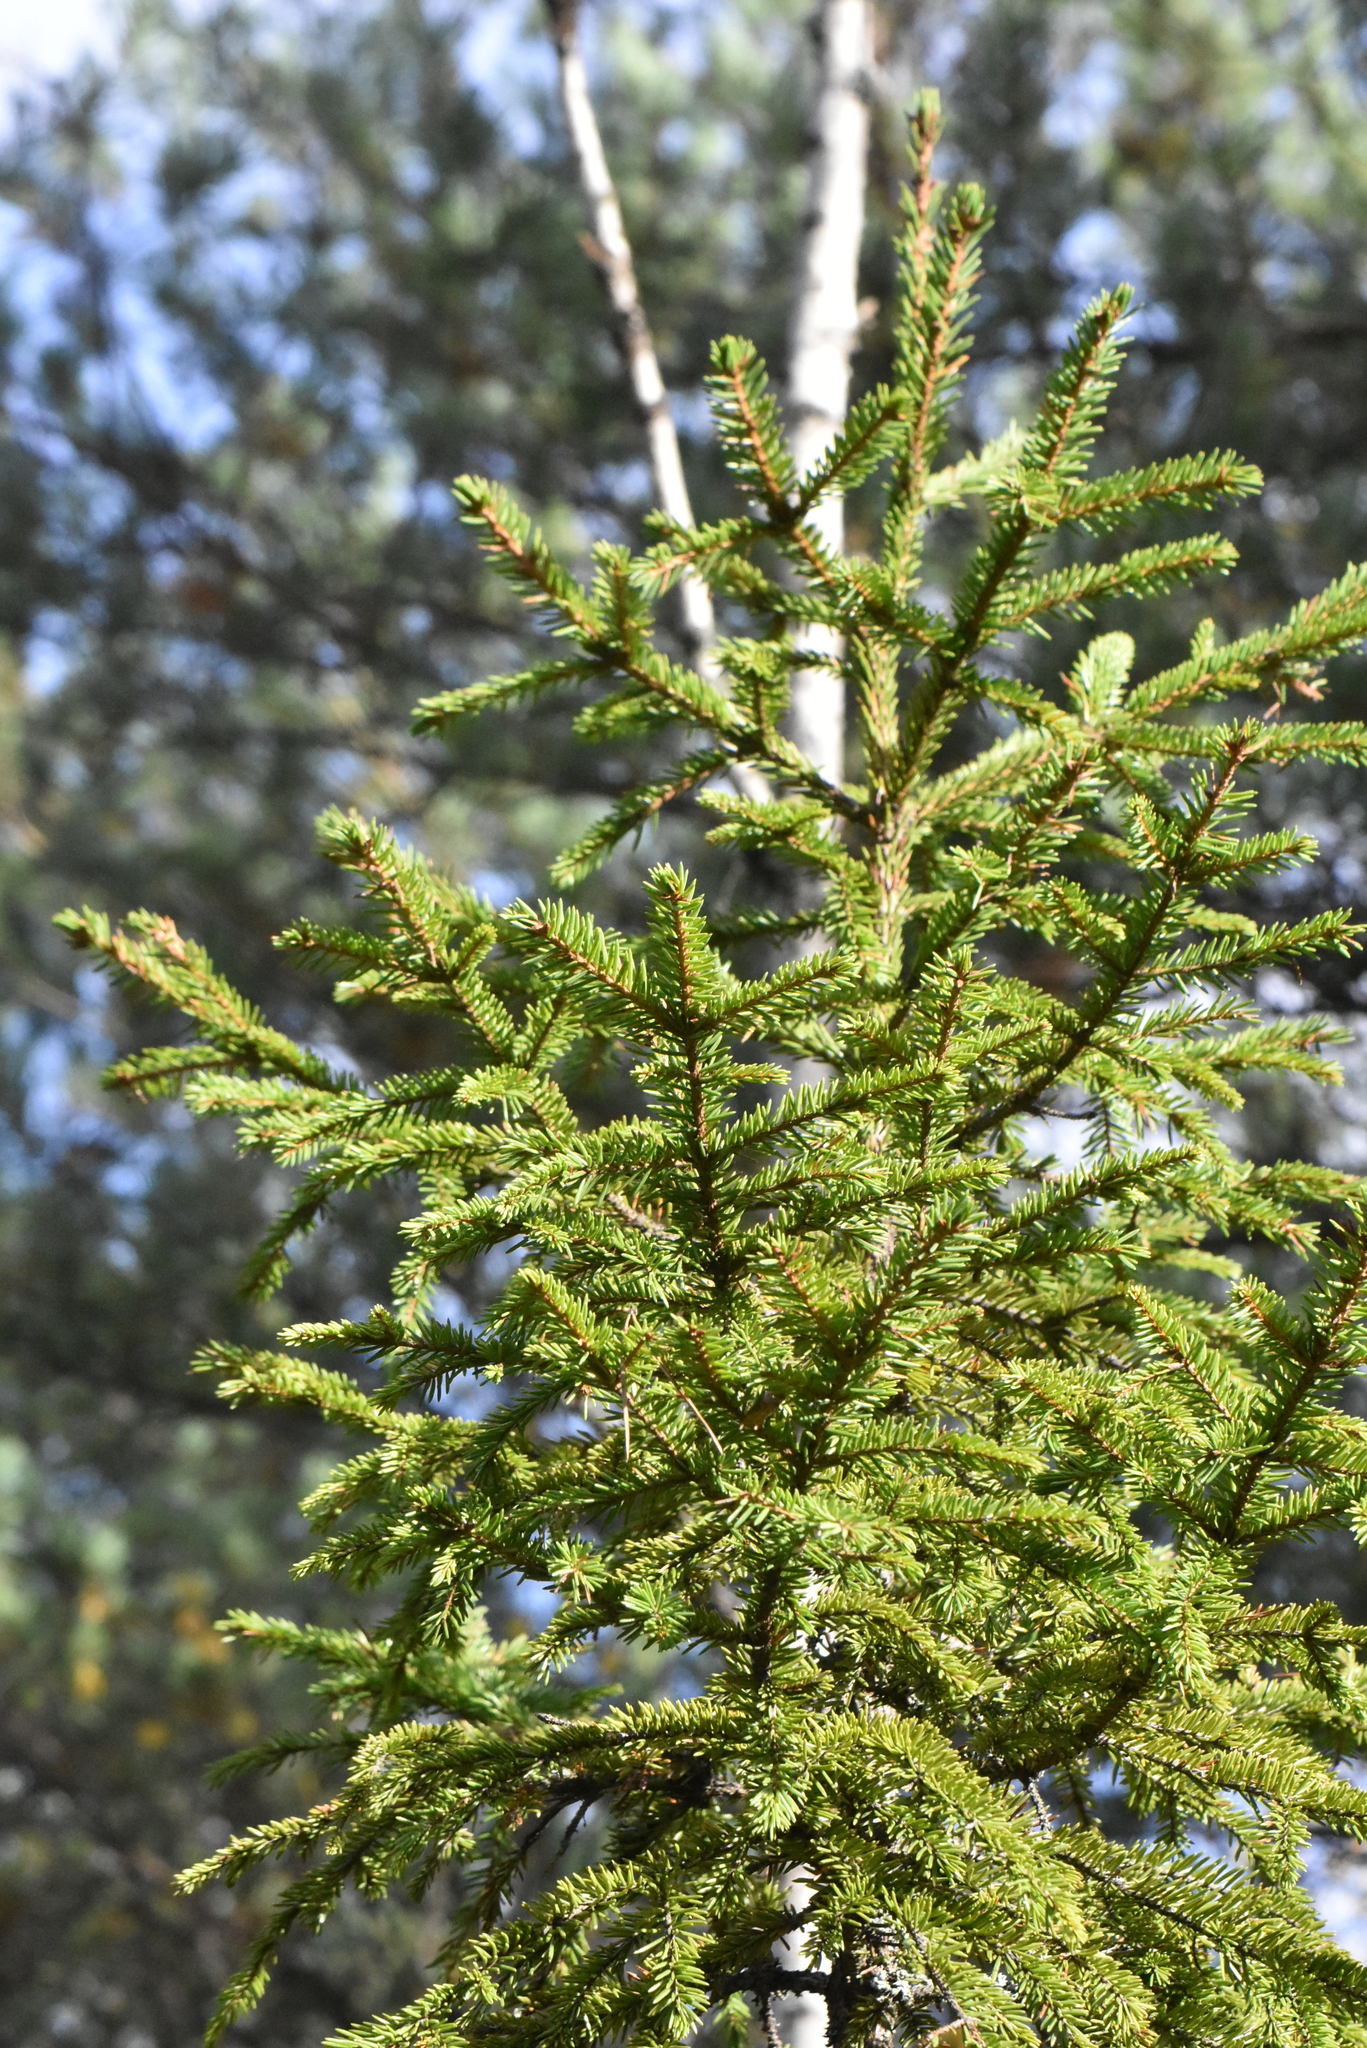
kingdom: Plantae
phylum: Tracheophyta
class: Pinopsida
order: Pinales
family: Pinaceae
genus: Picea
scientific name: Picea abies
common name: Norway spruce
